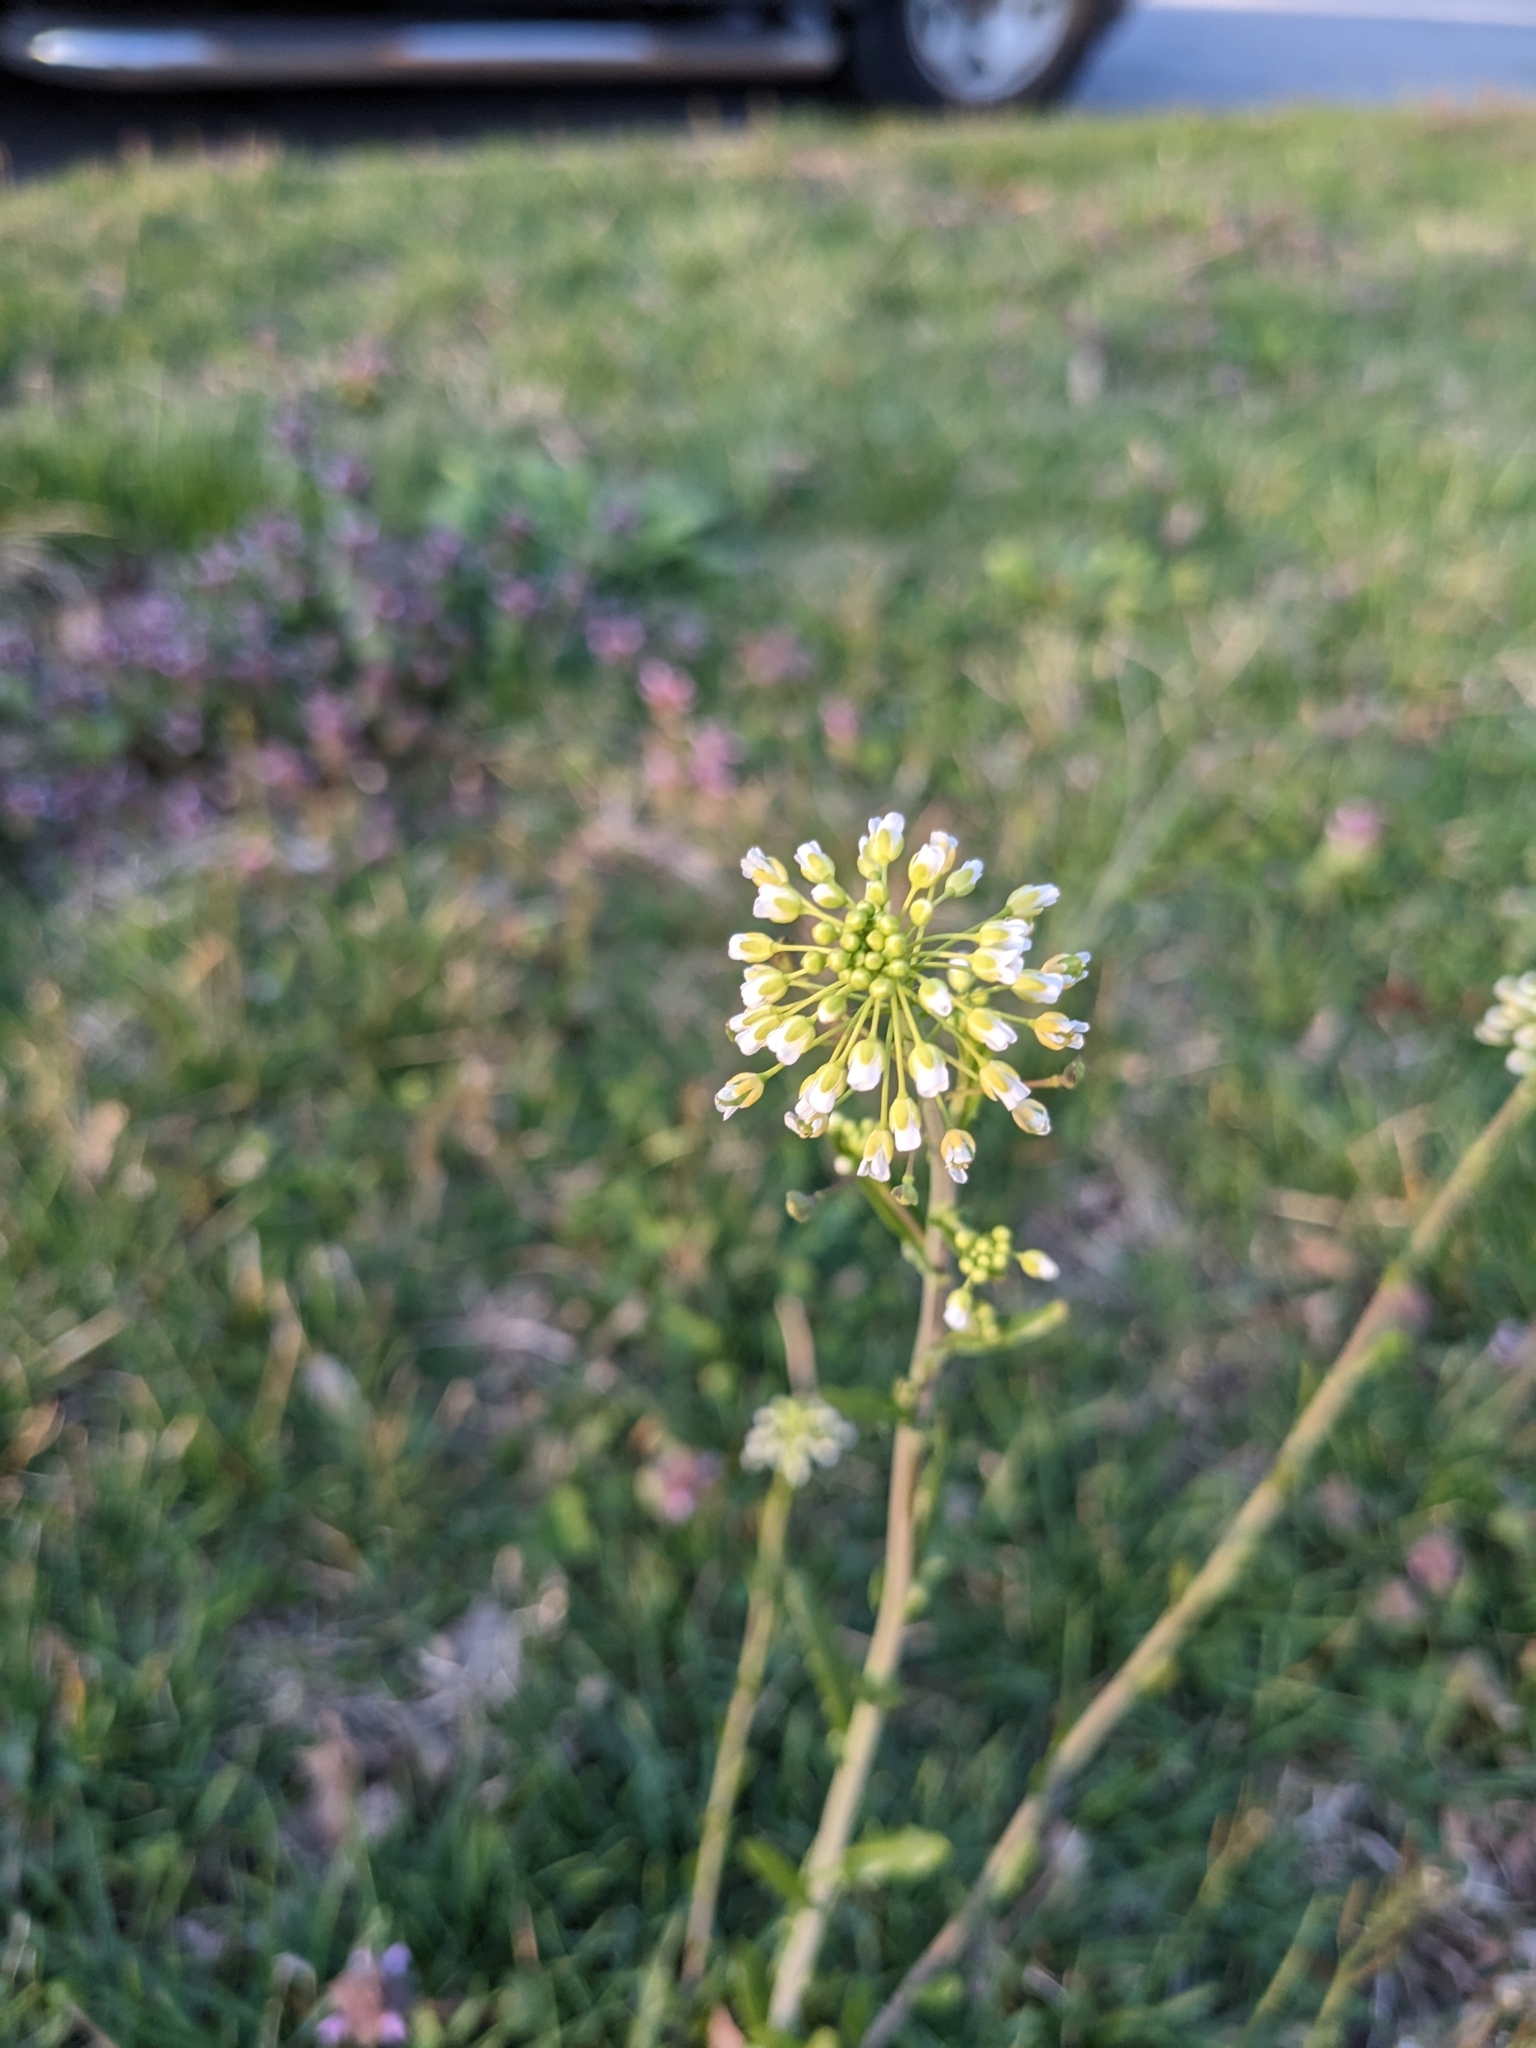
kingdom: Plantae
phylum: Tracheophyta
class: Magnoliopsida
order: Brassicales
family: Brassicaceae
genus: Mummenhoffia
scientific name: Mummenhoffia alliacea
